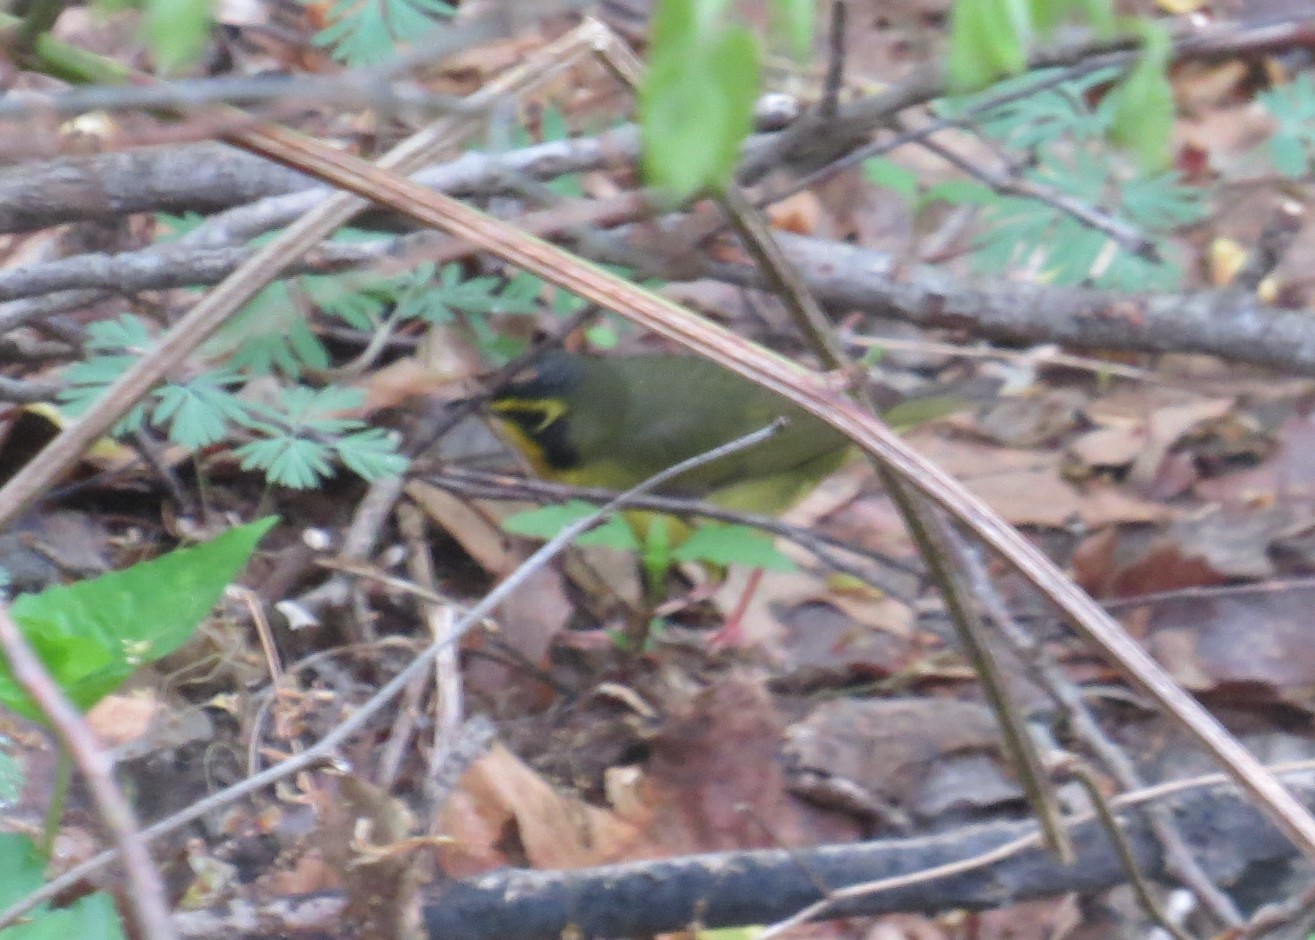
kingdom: Animalia
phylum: Chordata
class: Aves
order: Passeriformes
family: Parulidae
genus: Geothlypis
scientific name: Geothlypis formosa
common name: Kentucky warbler
